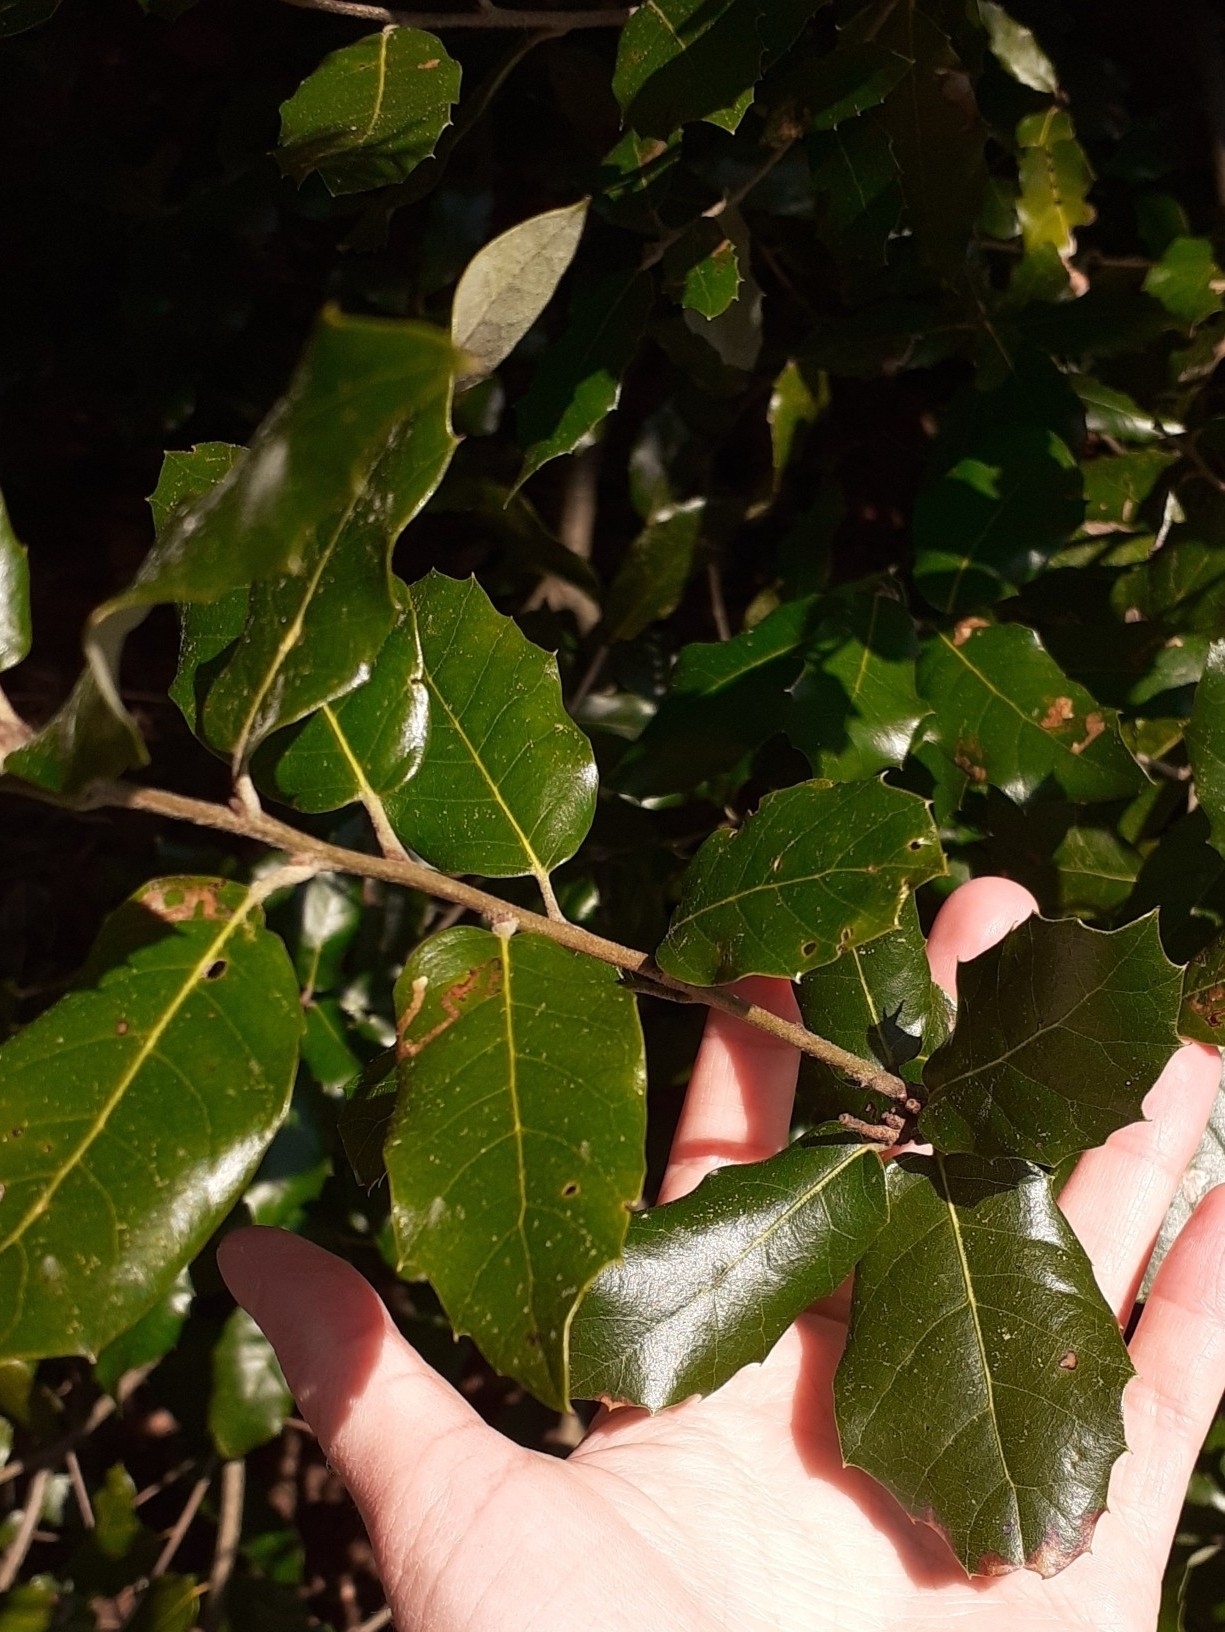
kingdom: Plantae
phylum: Tracheophyta
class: Magnoliopsida
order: Fagales
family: Fagaceae
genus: Quercus
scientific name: Quercus ilex
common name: Evergreen oak
